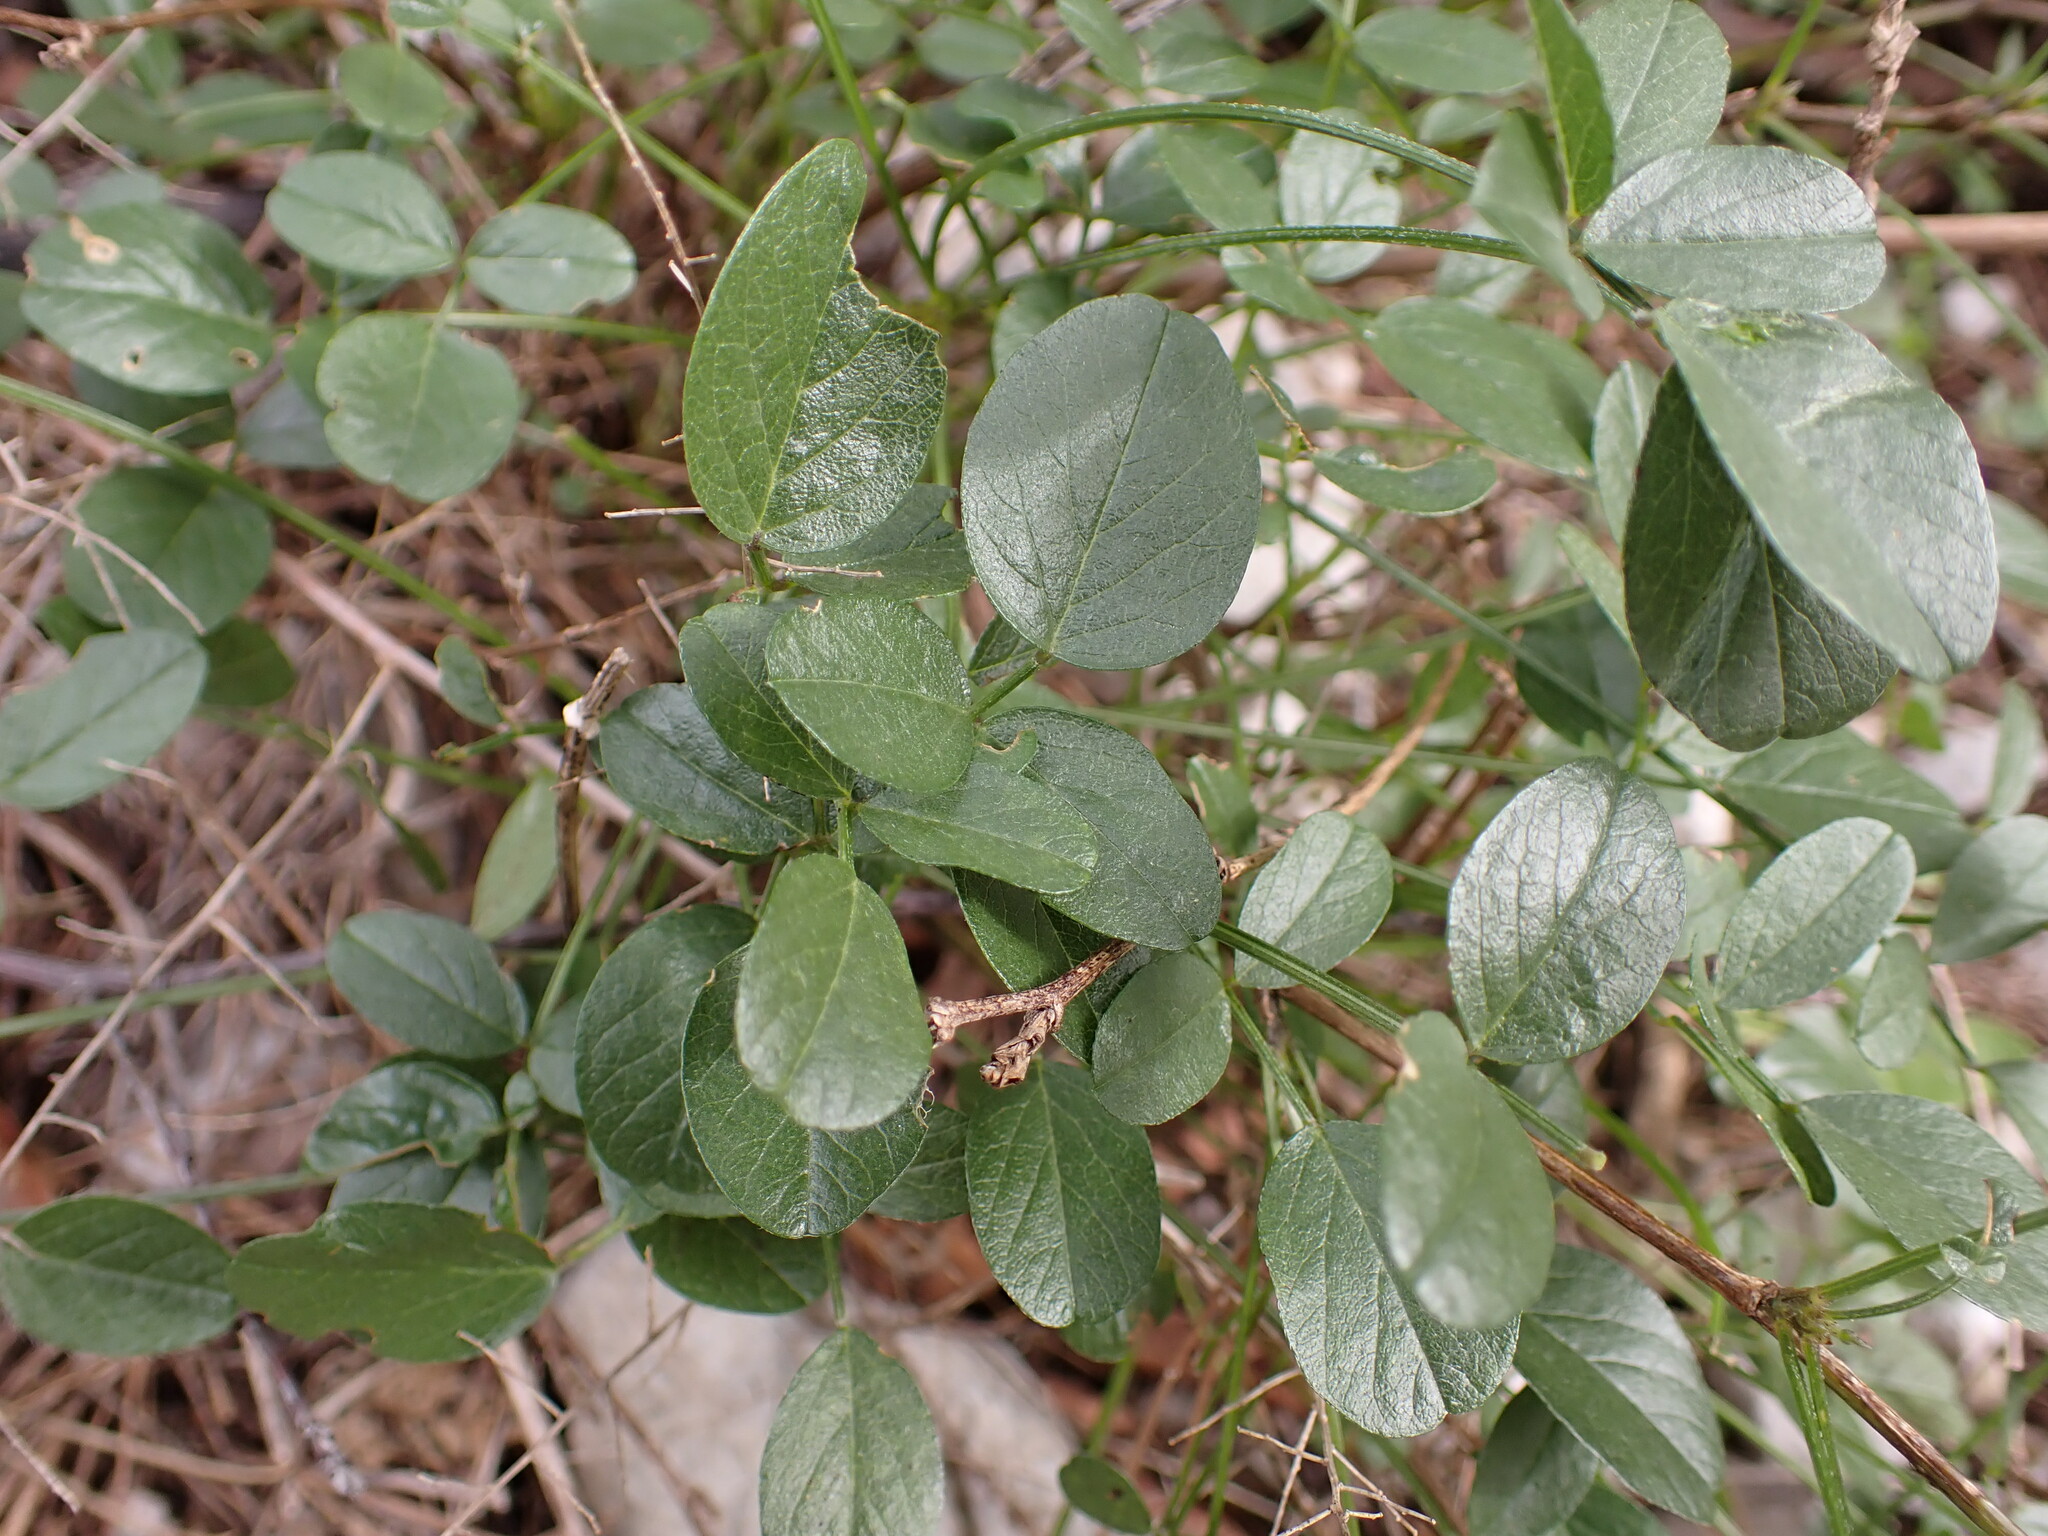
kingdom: Plantae
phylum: Tracheophyta
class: Magnoliopsida
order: Fabales
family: Fabaceae
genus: Bituminaria
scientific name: Bituminaria bituminosa
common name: Arabian pea
